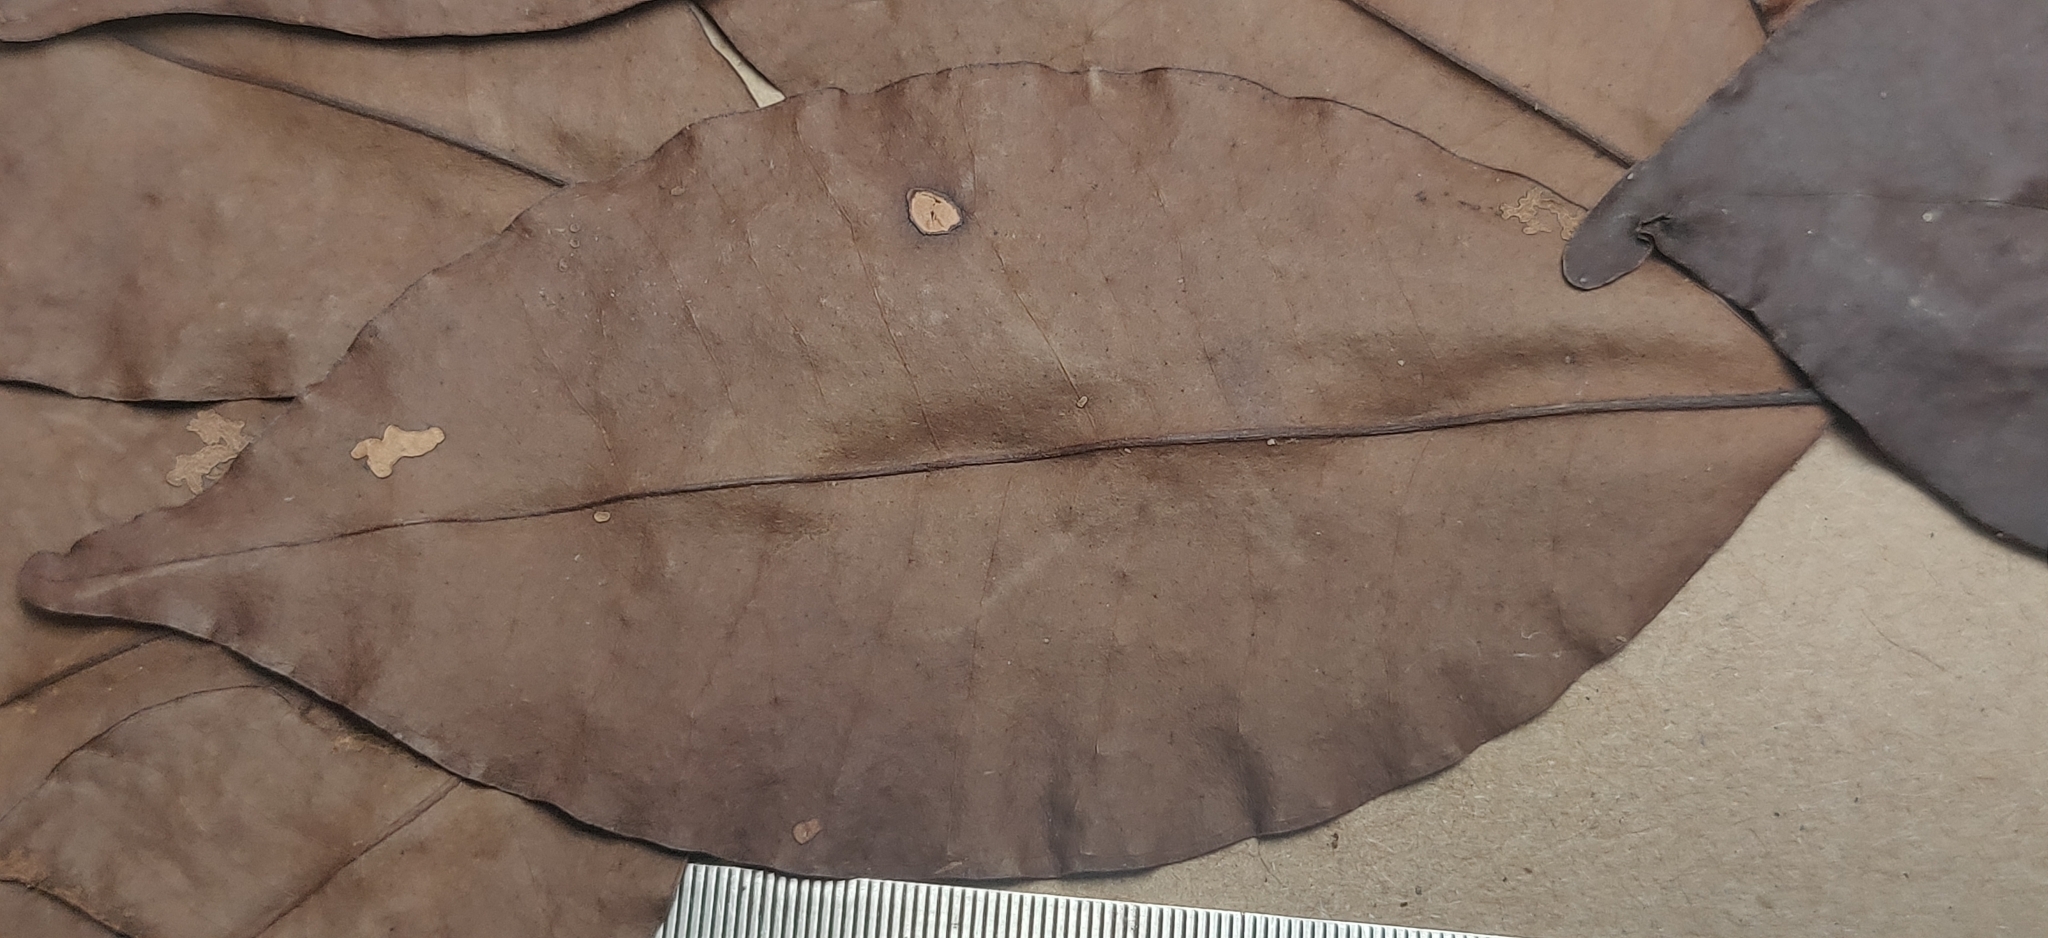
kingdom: Plantae
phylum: Tracheophyta
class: Magnoliopsida
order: Myrtales
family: Myrtaceae
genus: Syzygium
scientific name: Syzygium laetum
